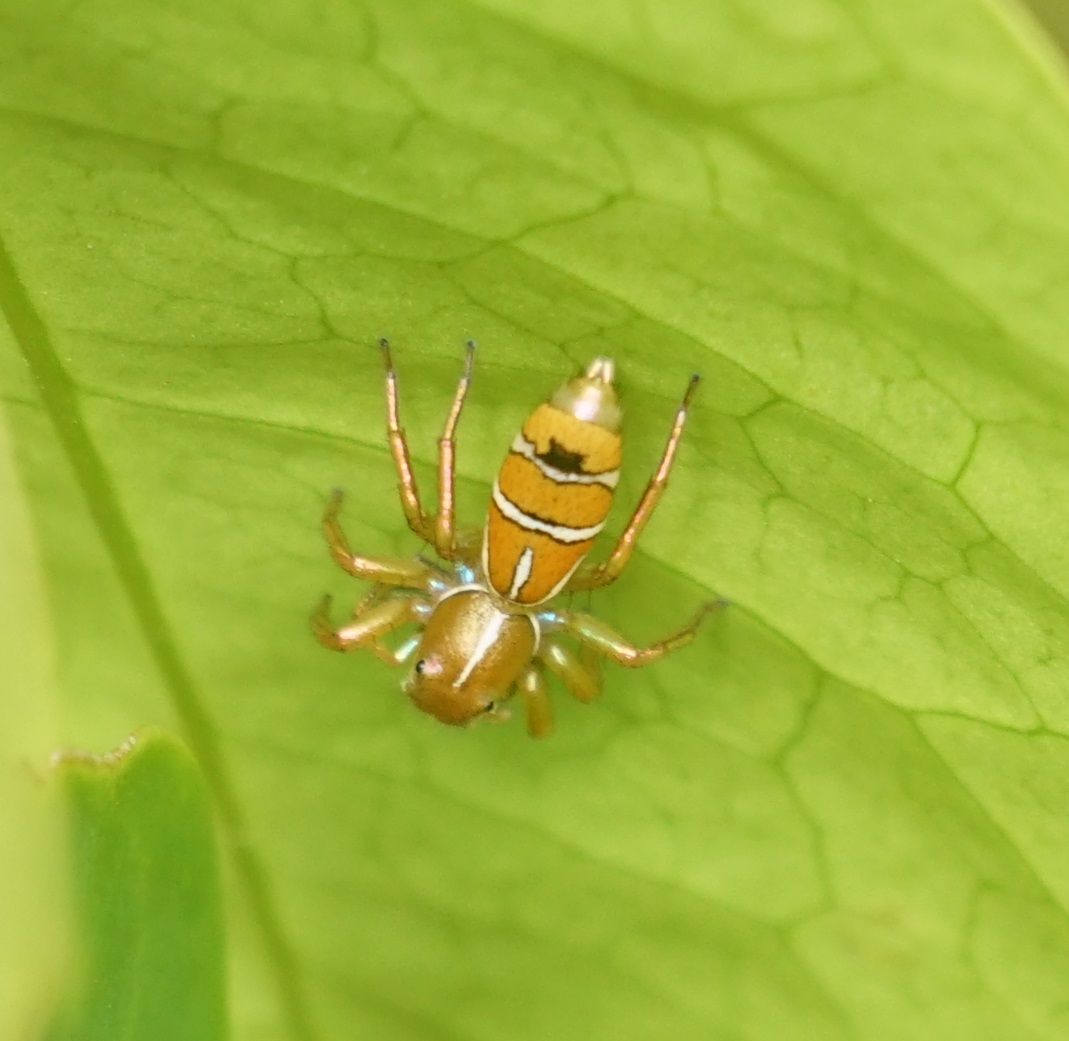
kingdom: Animalia
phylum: Arthropoda
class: Arachnida
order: Araneae
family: Salticidae
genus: Cosmophasis
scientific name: Cosmophasis bitaeniata
